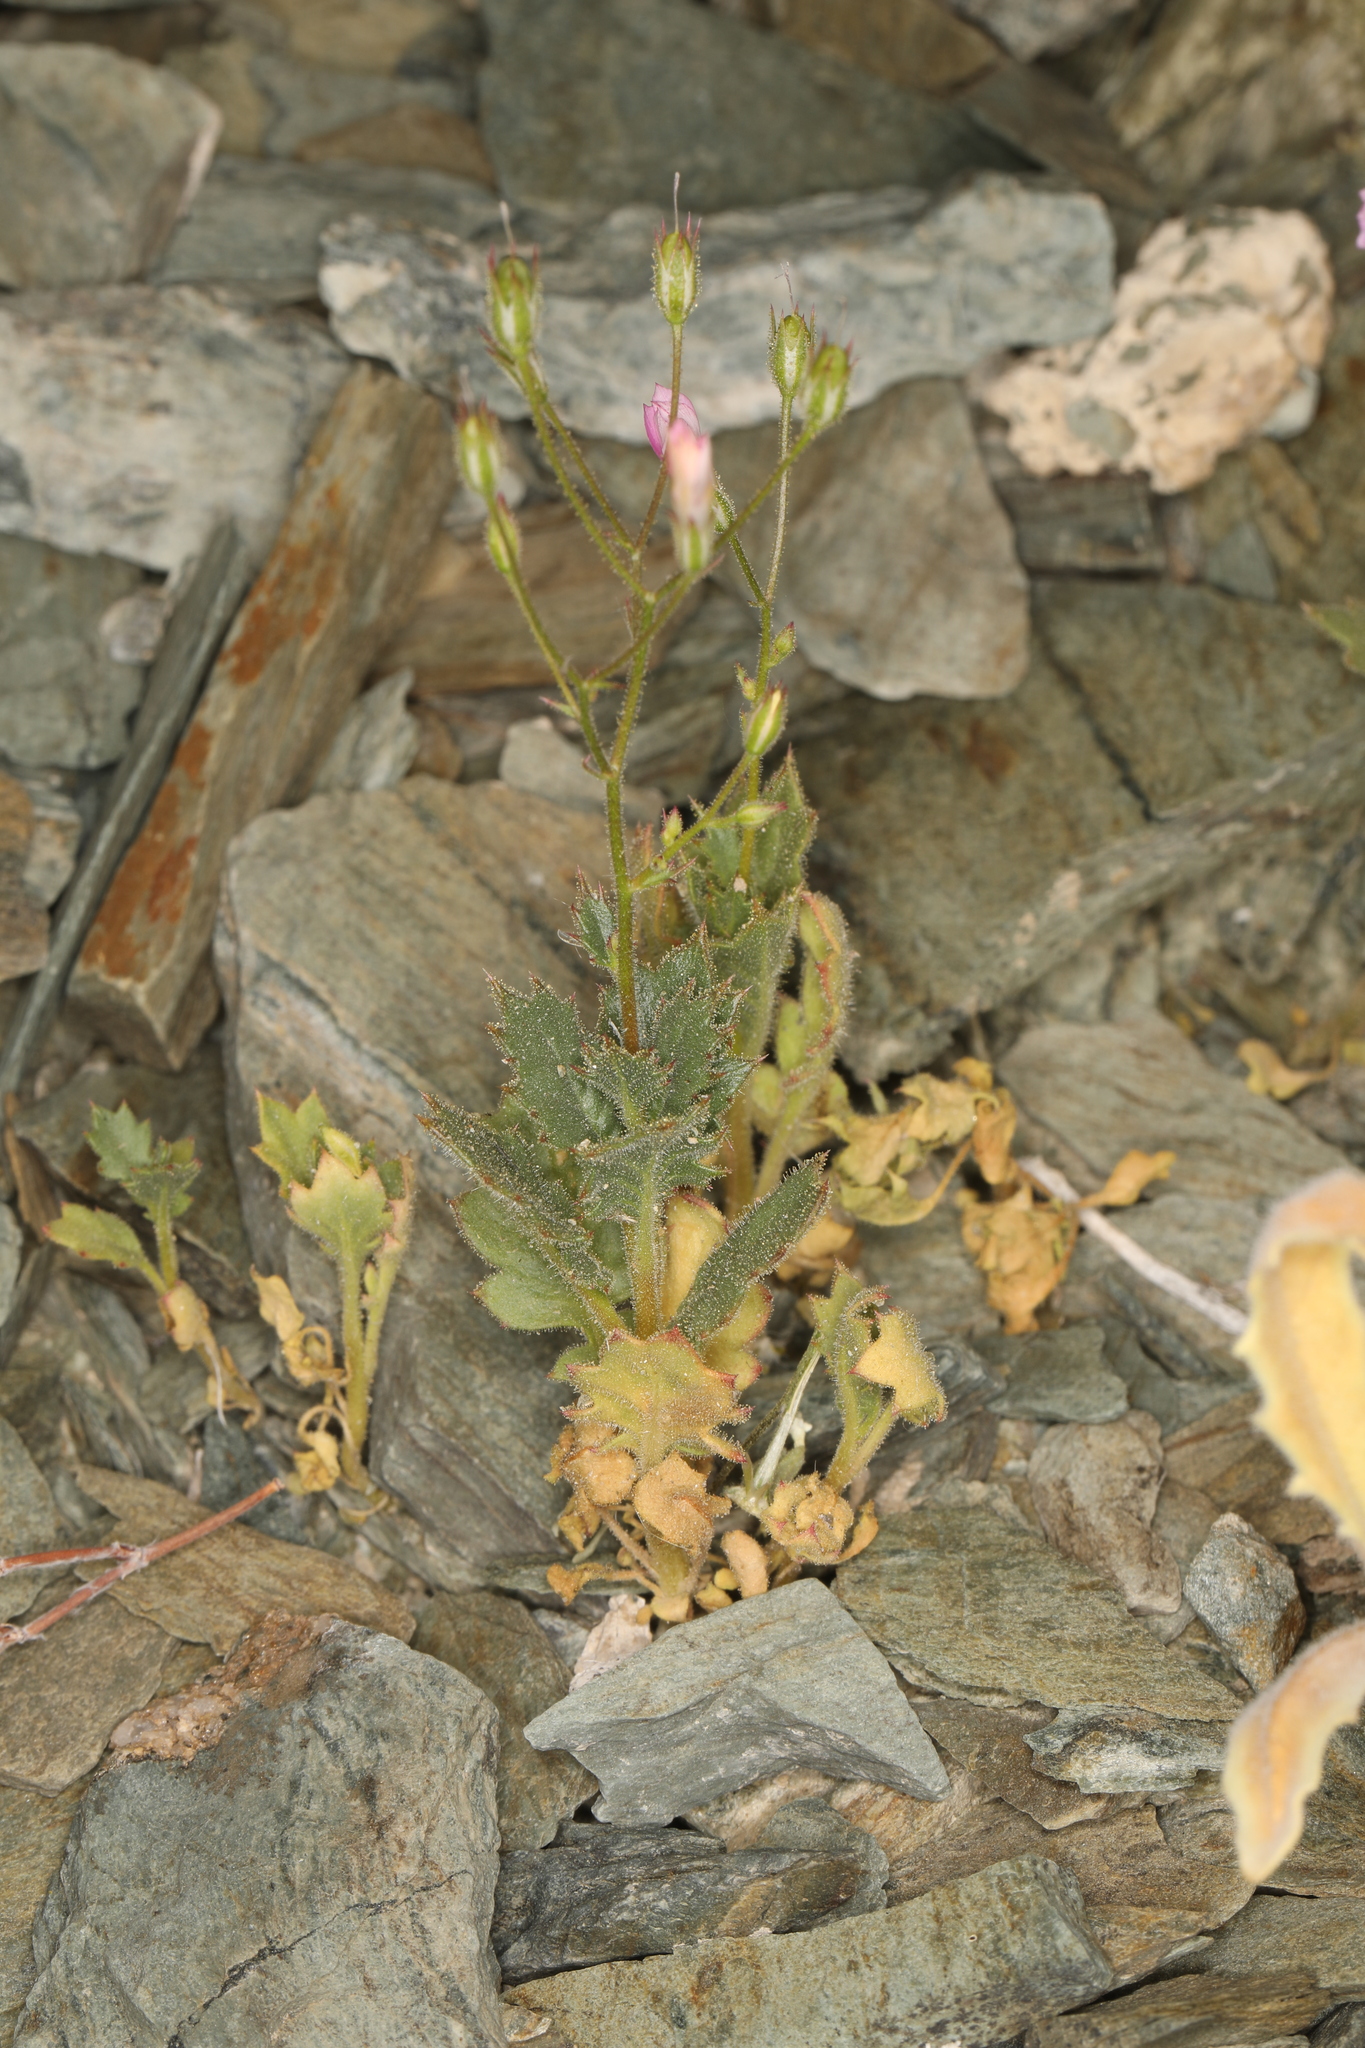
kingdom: Plantae
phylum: Tracheophyta
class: Magnoliopsida
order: Ericales
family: Polemoniaceae
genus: Aliciella
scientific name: Aliciella latifolia
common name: Broad-leaf gilia
